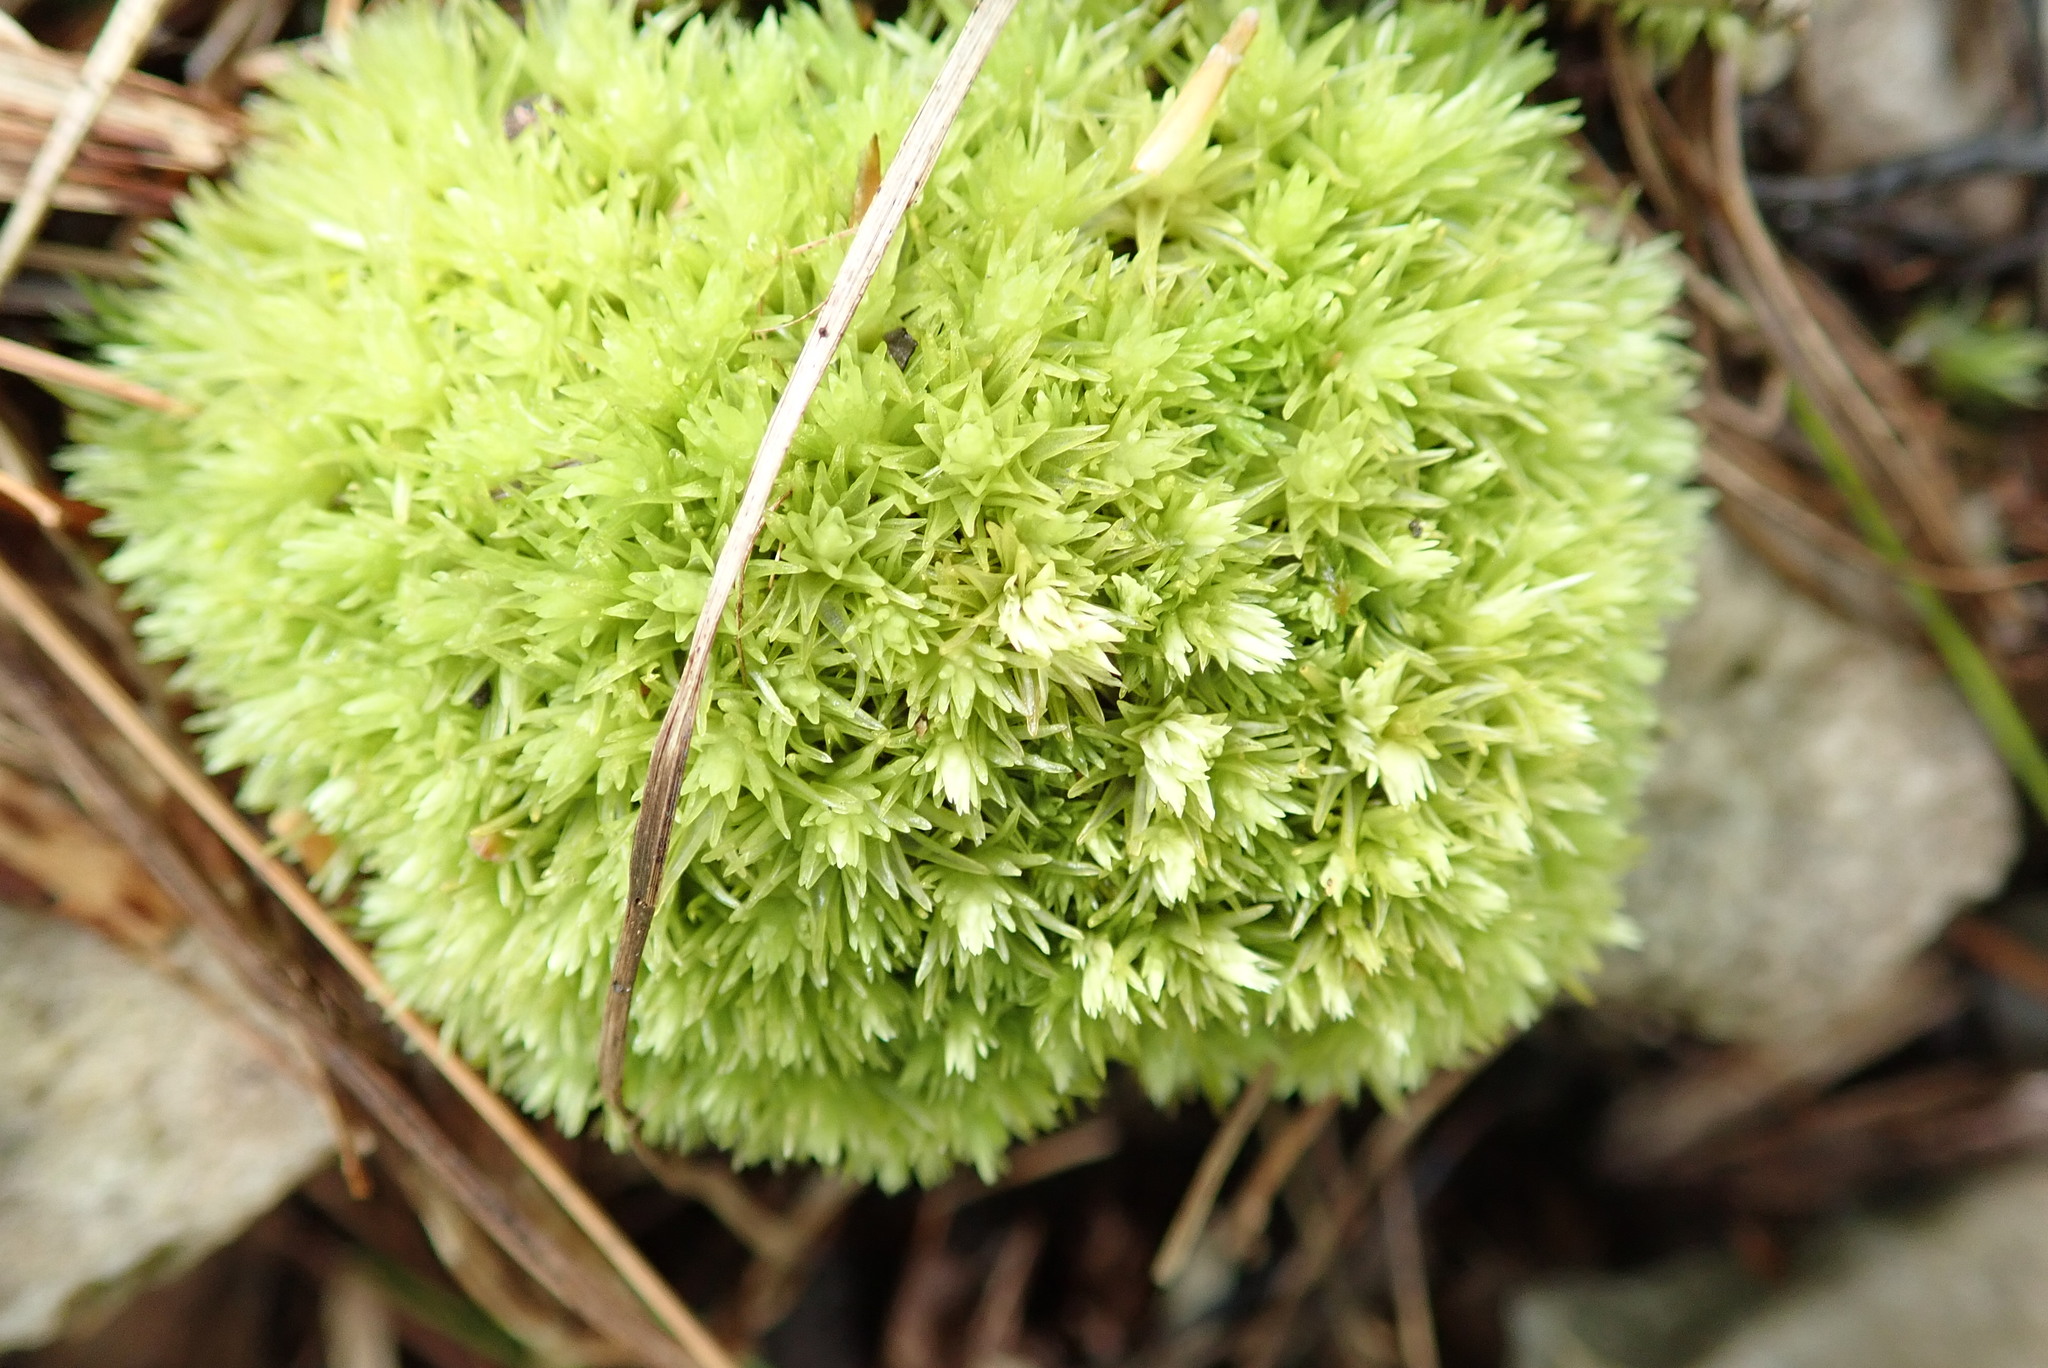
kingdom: Plantae
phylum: Bryophyta
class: Bryopsida
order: Dicranales
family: Leucobryaceae
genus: Leucobryum
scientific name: Leucobryum glaucum
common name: Large white-moss
